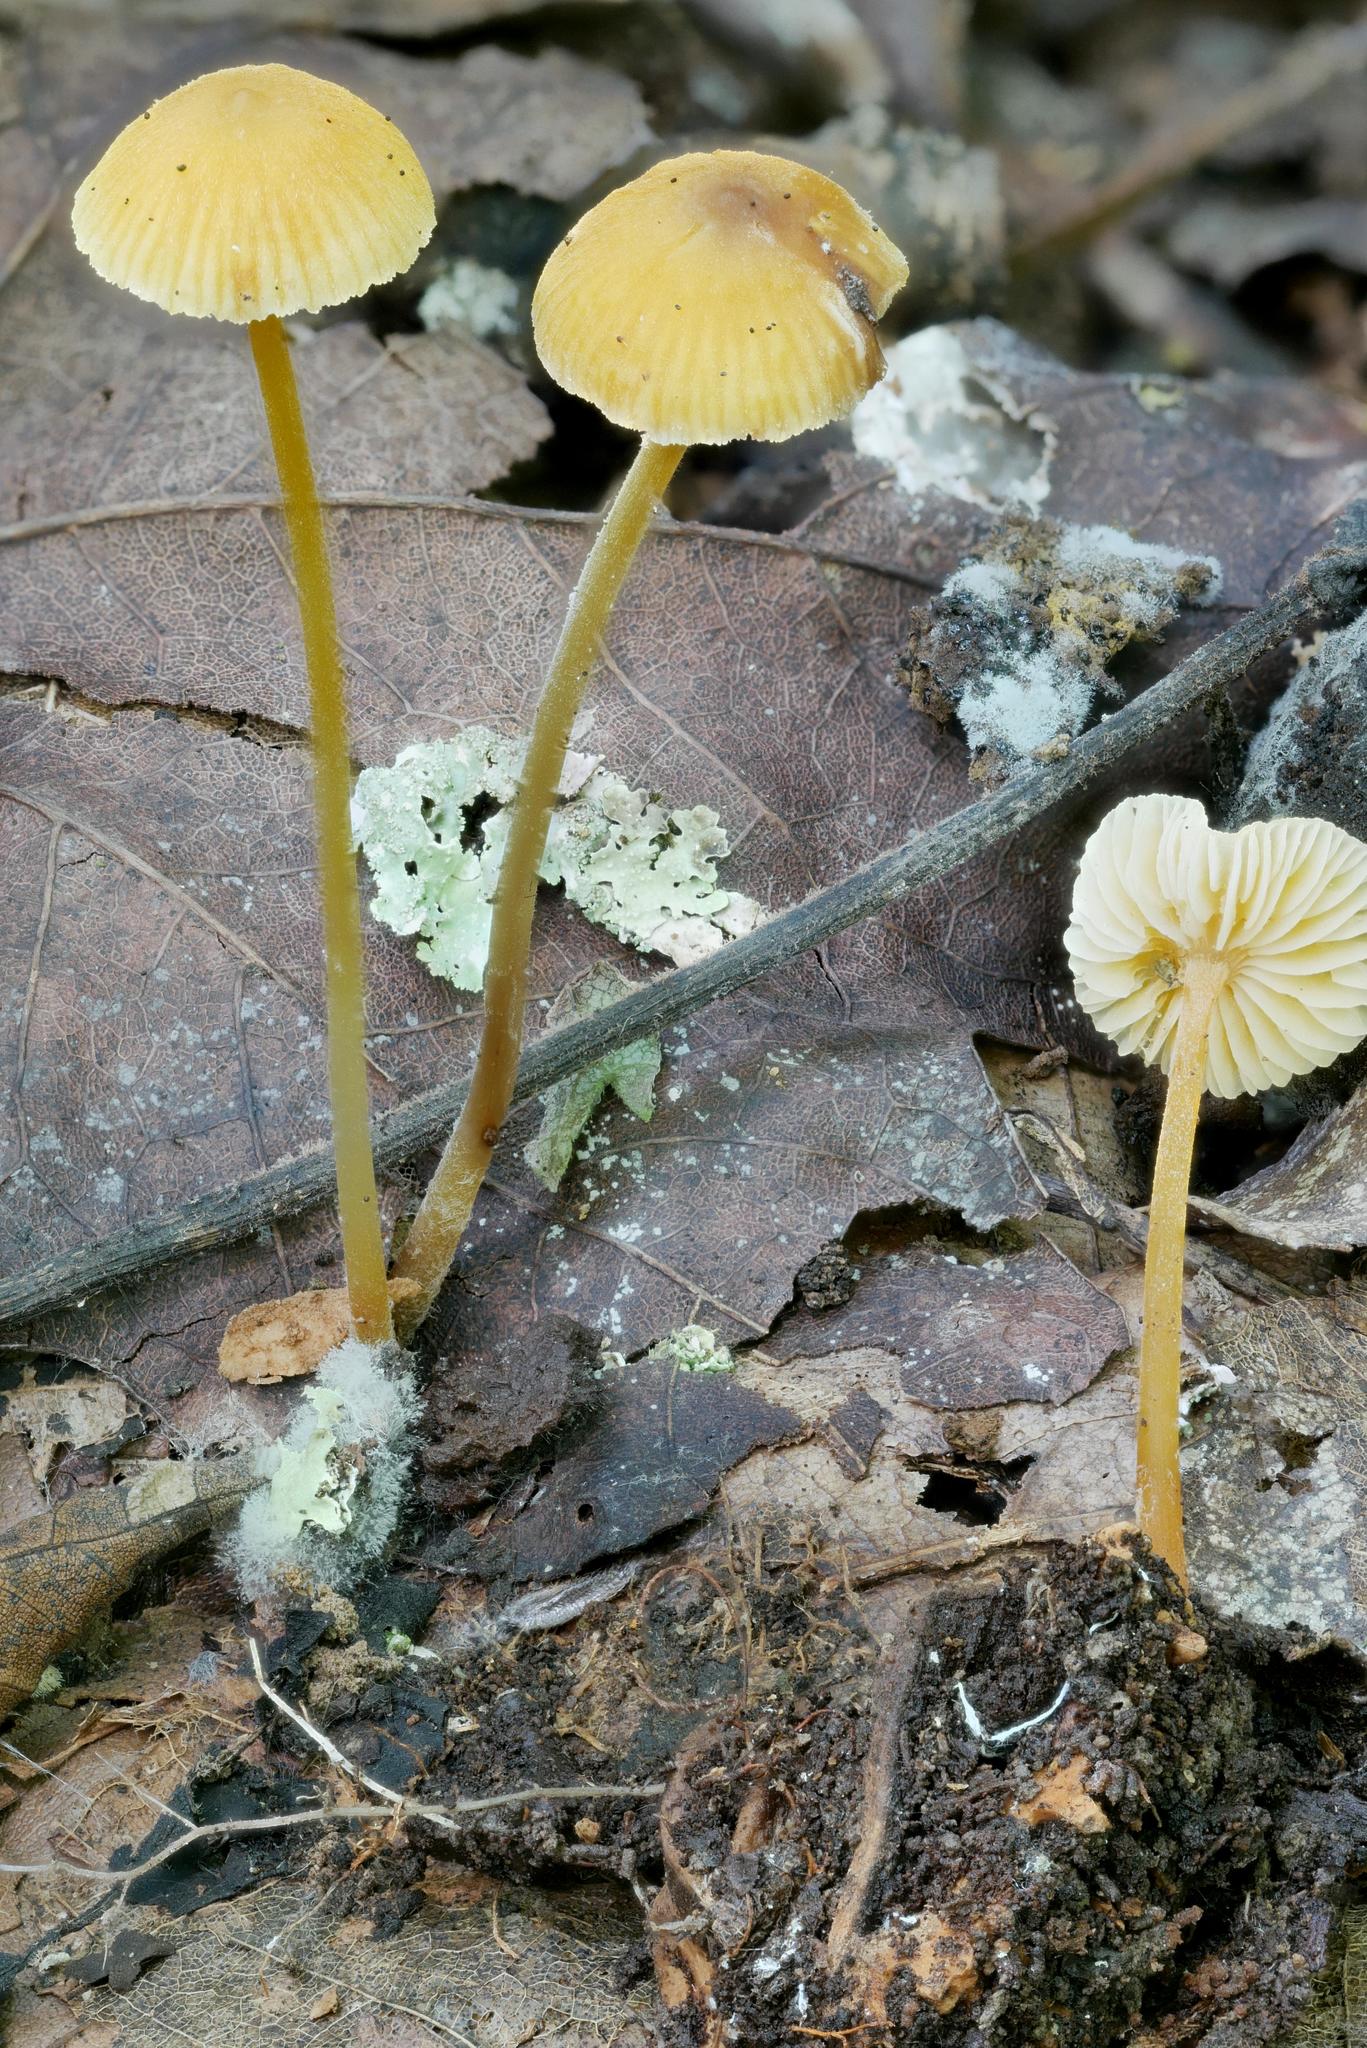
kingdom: Fungi
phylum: Basidiomycota
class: Agaricomycetes
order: Agaricales
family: Mycenaceae
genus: Mycena
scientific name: Mycena crocea
